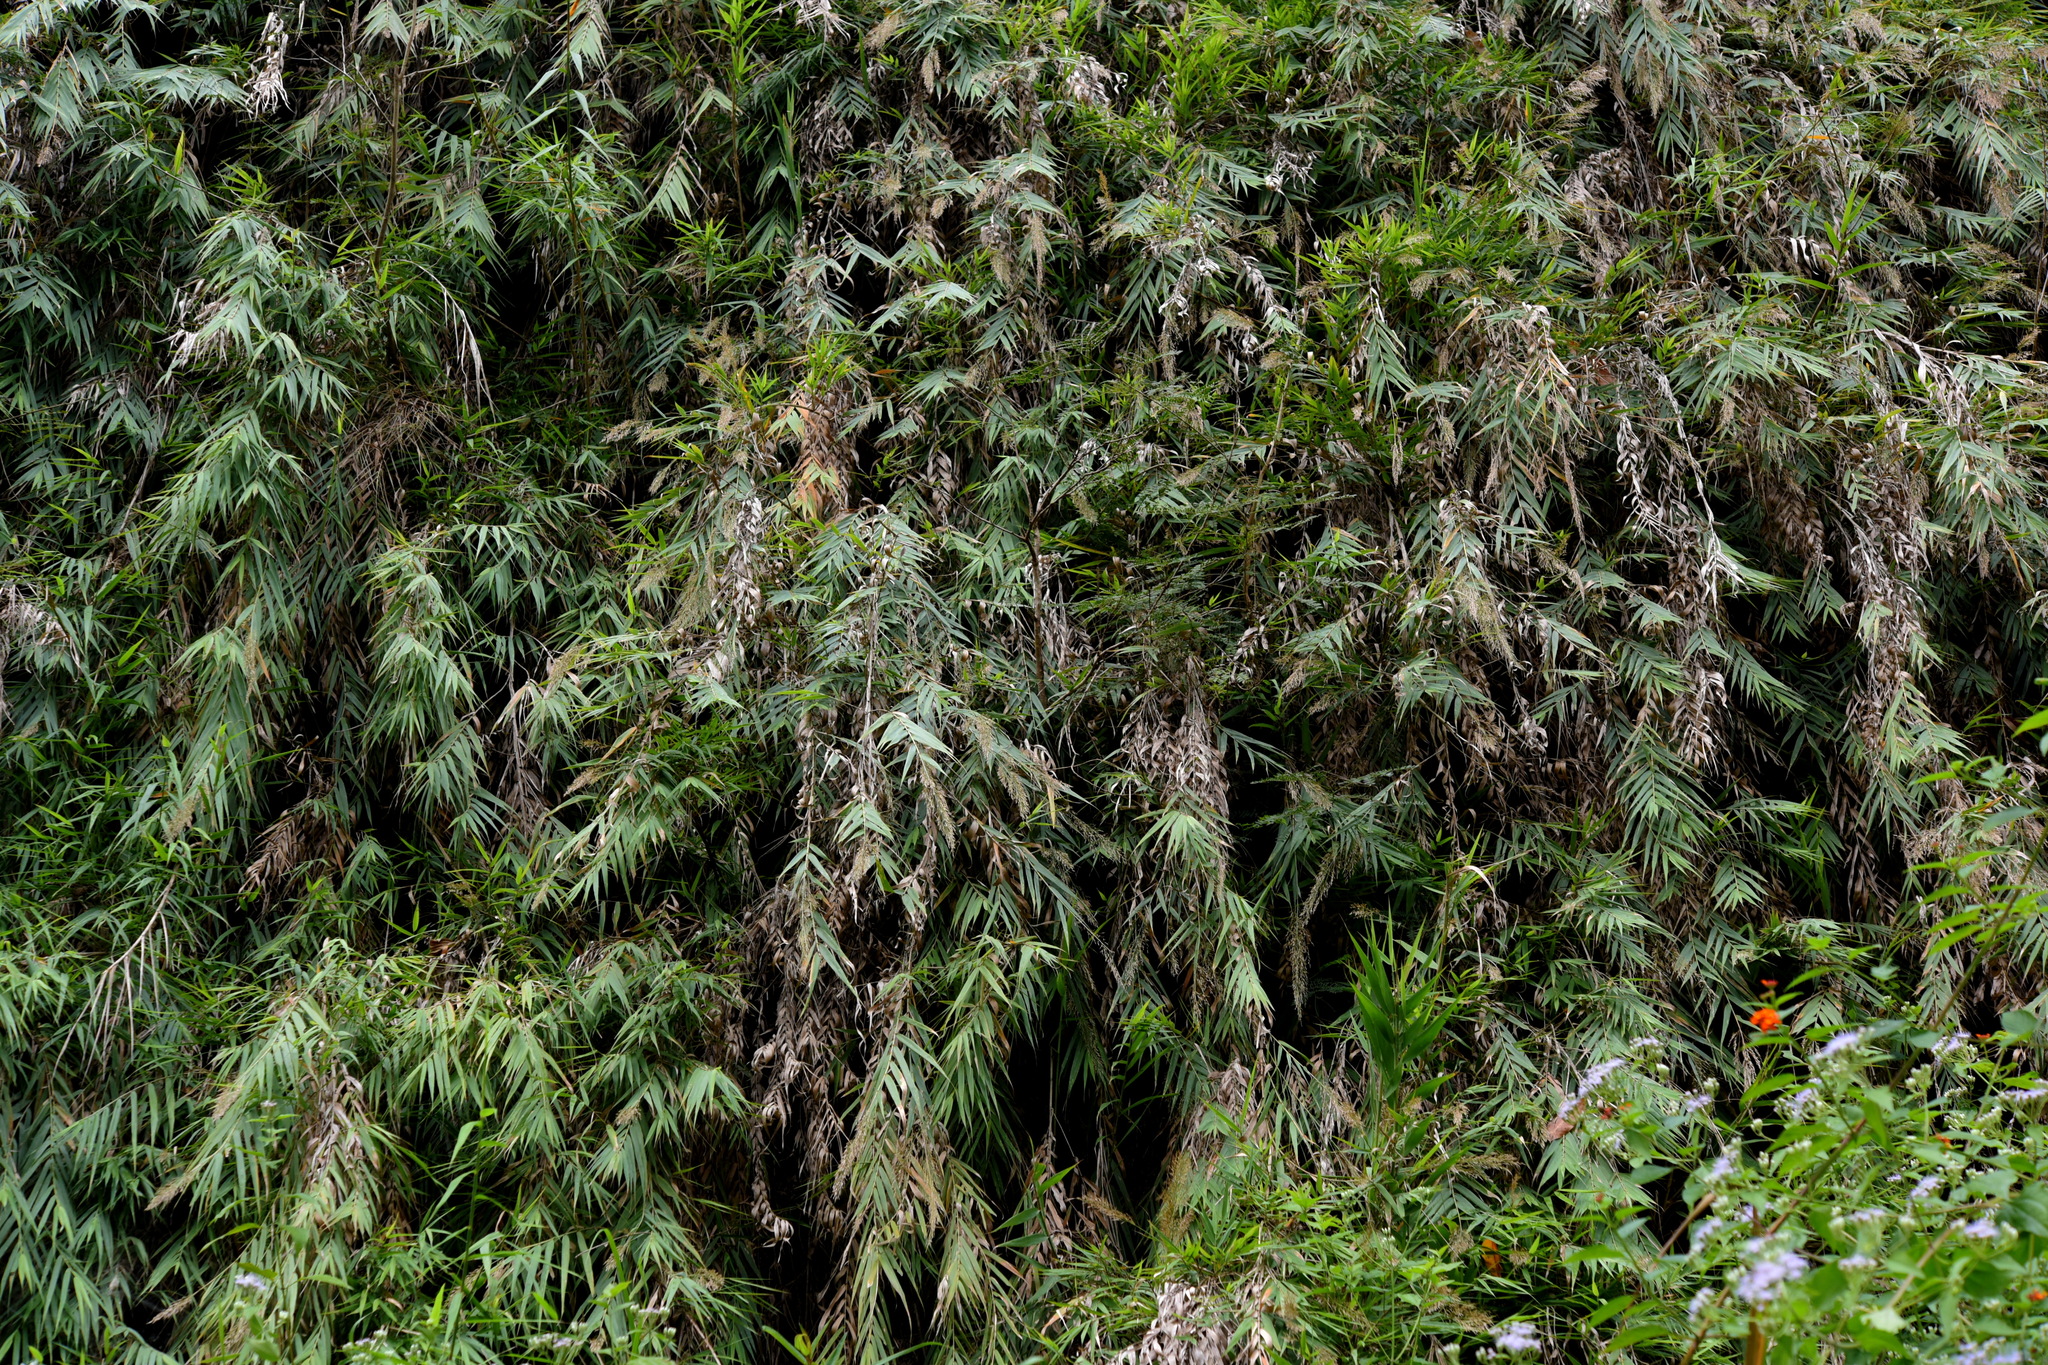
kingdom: Plantae
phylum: Tracheophyta
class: Liliopsida
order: Poales
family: Poaceae
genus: Arundo
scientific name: Arundo formosana
